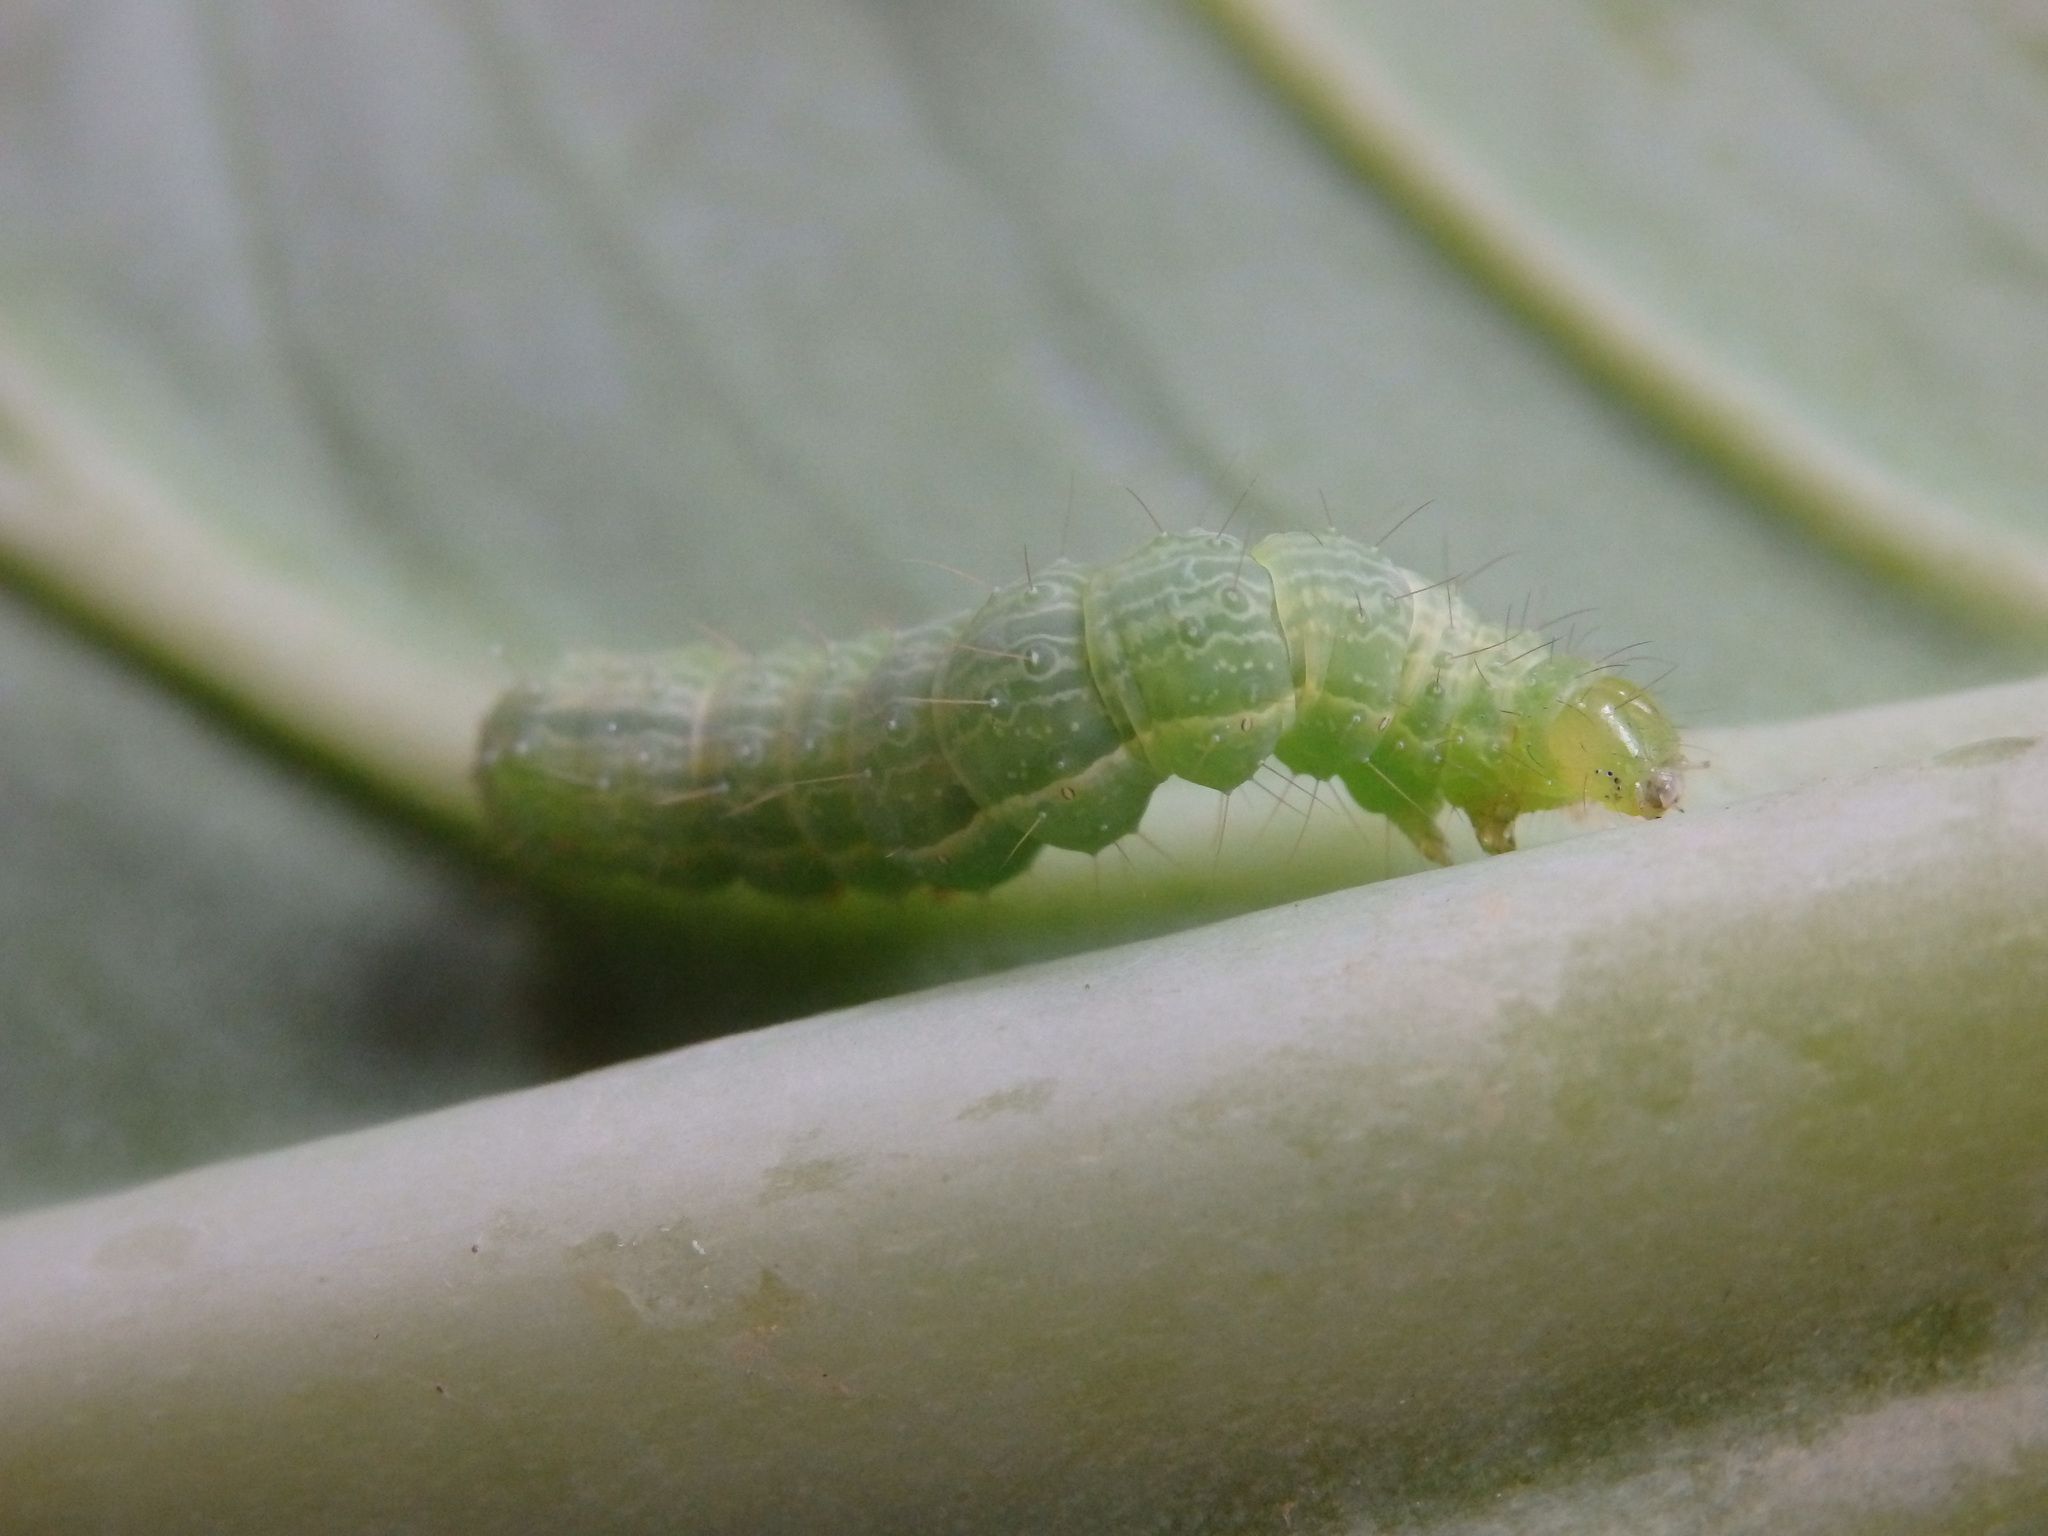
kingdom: Animalia
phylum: Arthropoda
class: Insecta
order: Lepidoptera
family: Noctuidae
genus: Autographa
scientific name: Autographa gamma
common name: Silver y
